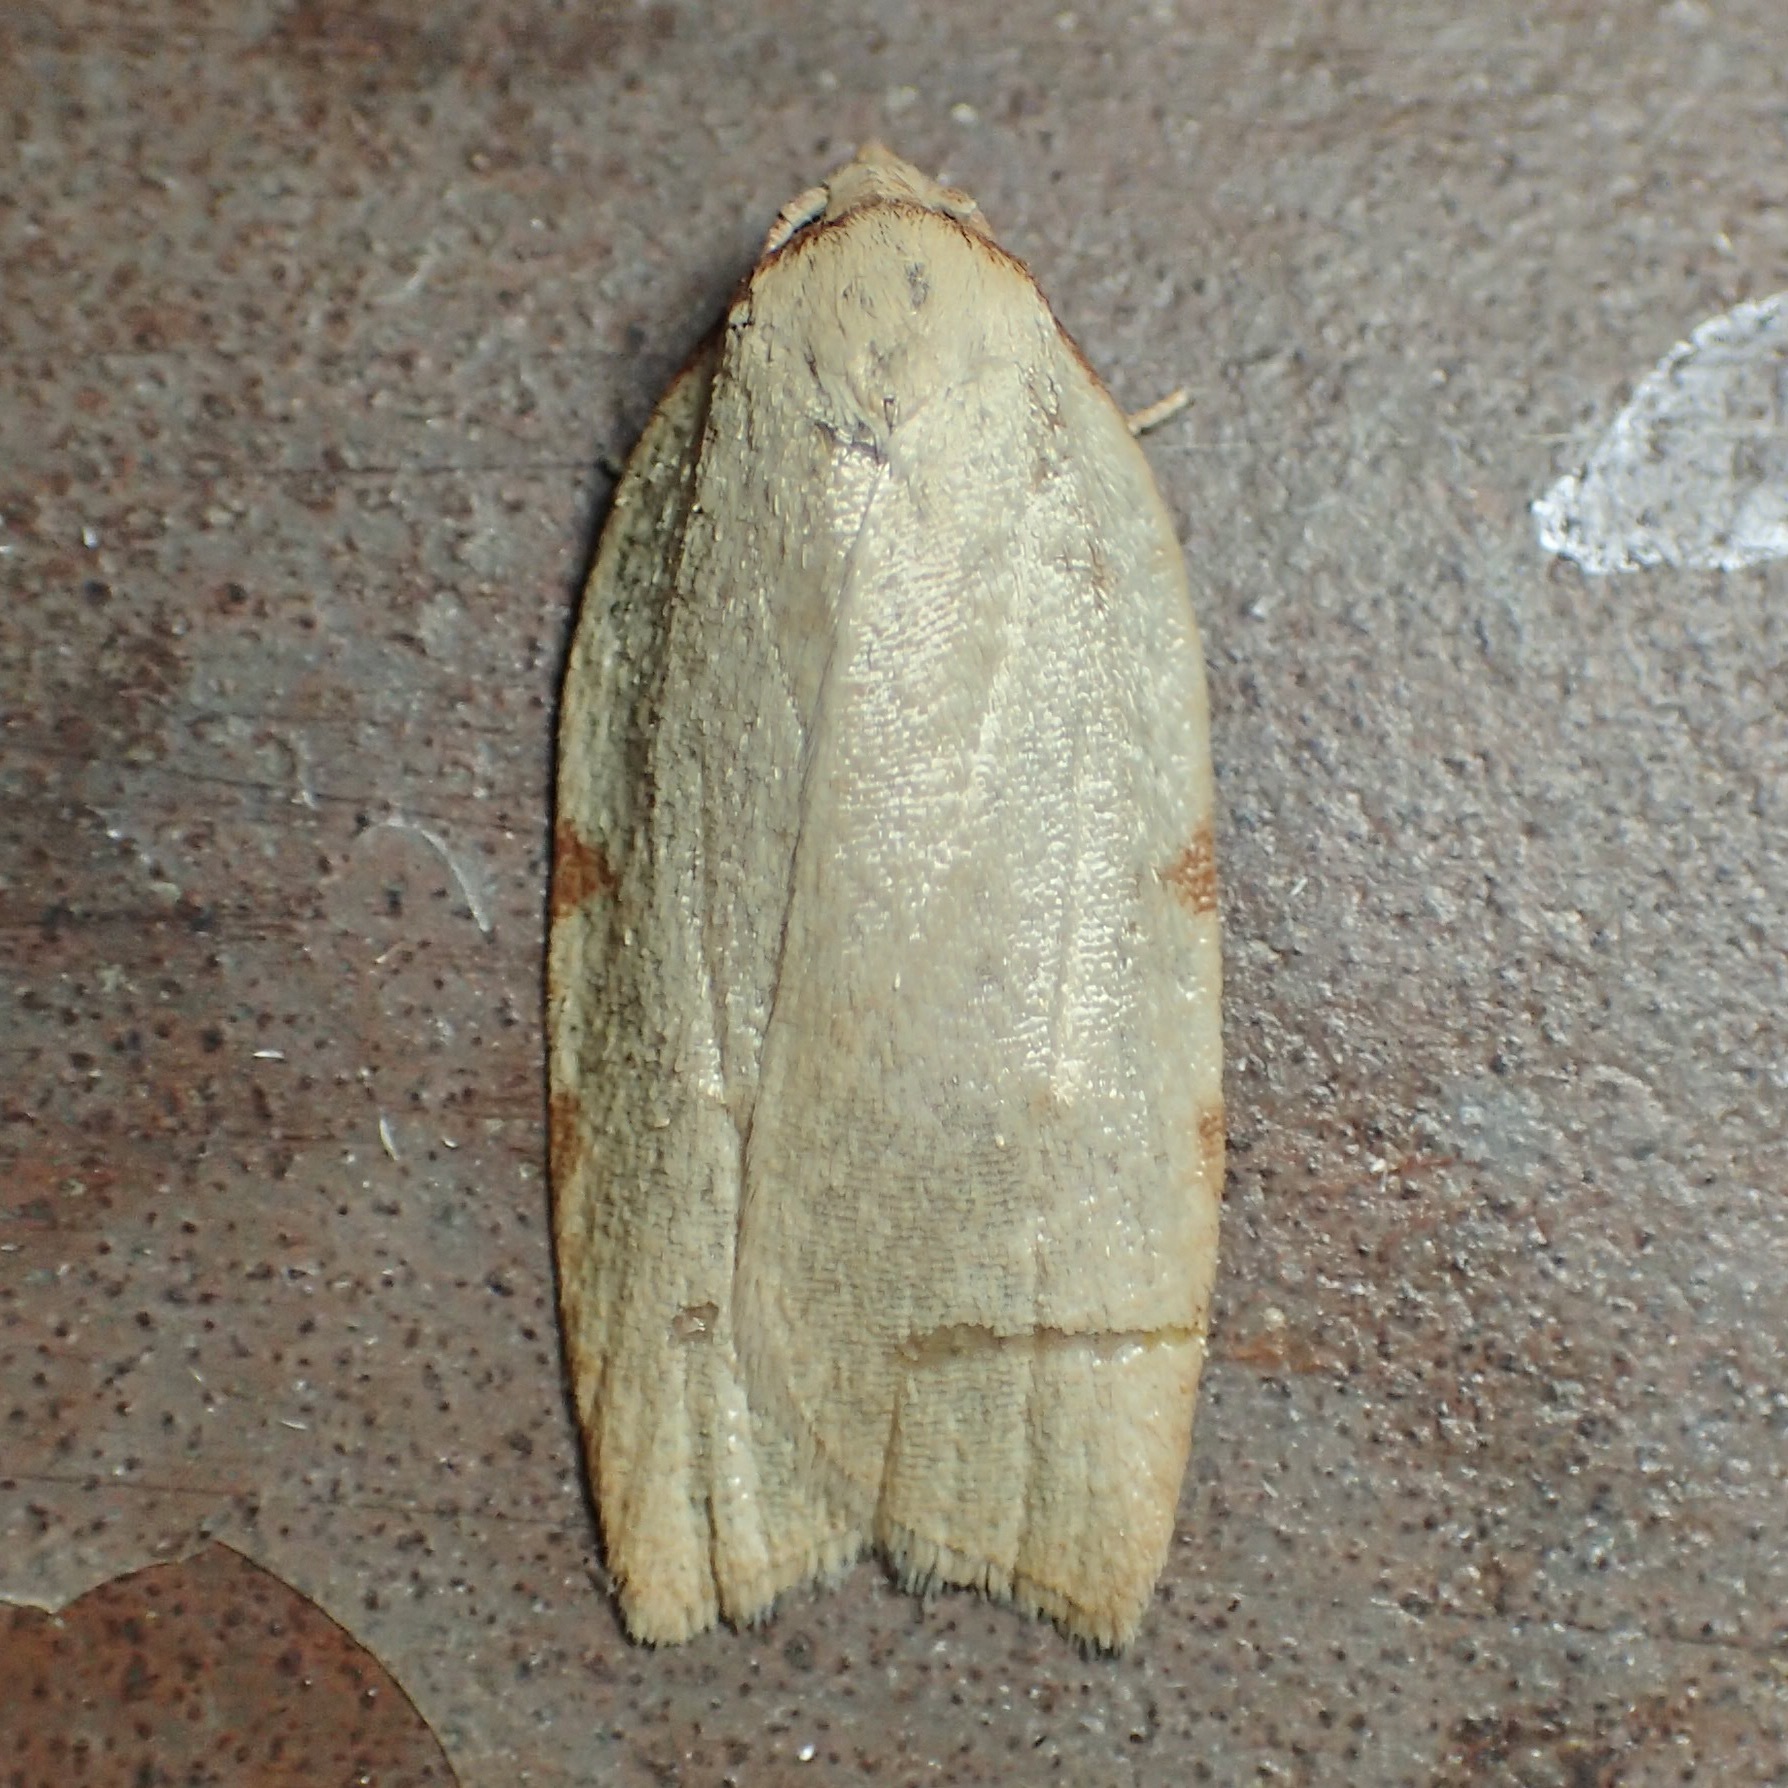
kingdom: Animalia
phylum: Arthropoda
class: Insecta
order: Lepidoptera
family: Tortricidae
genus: Amorbia
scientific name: Amorbia cuneanum
